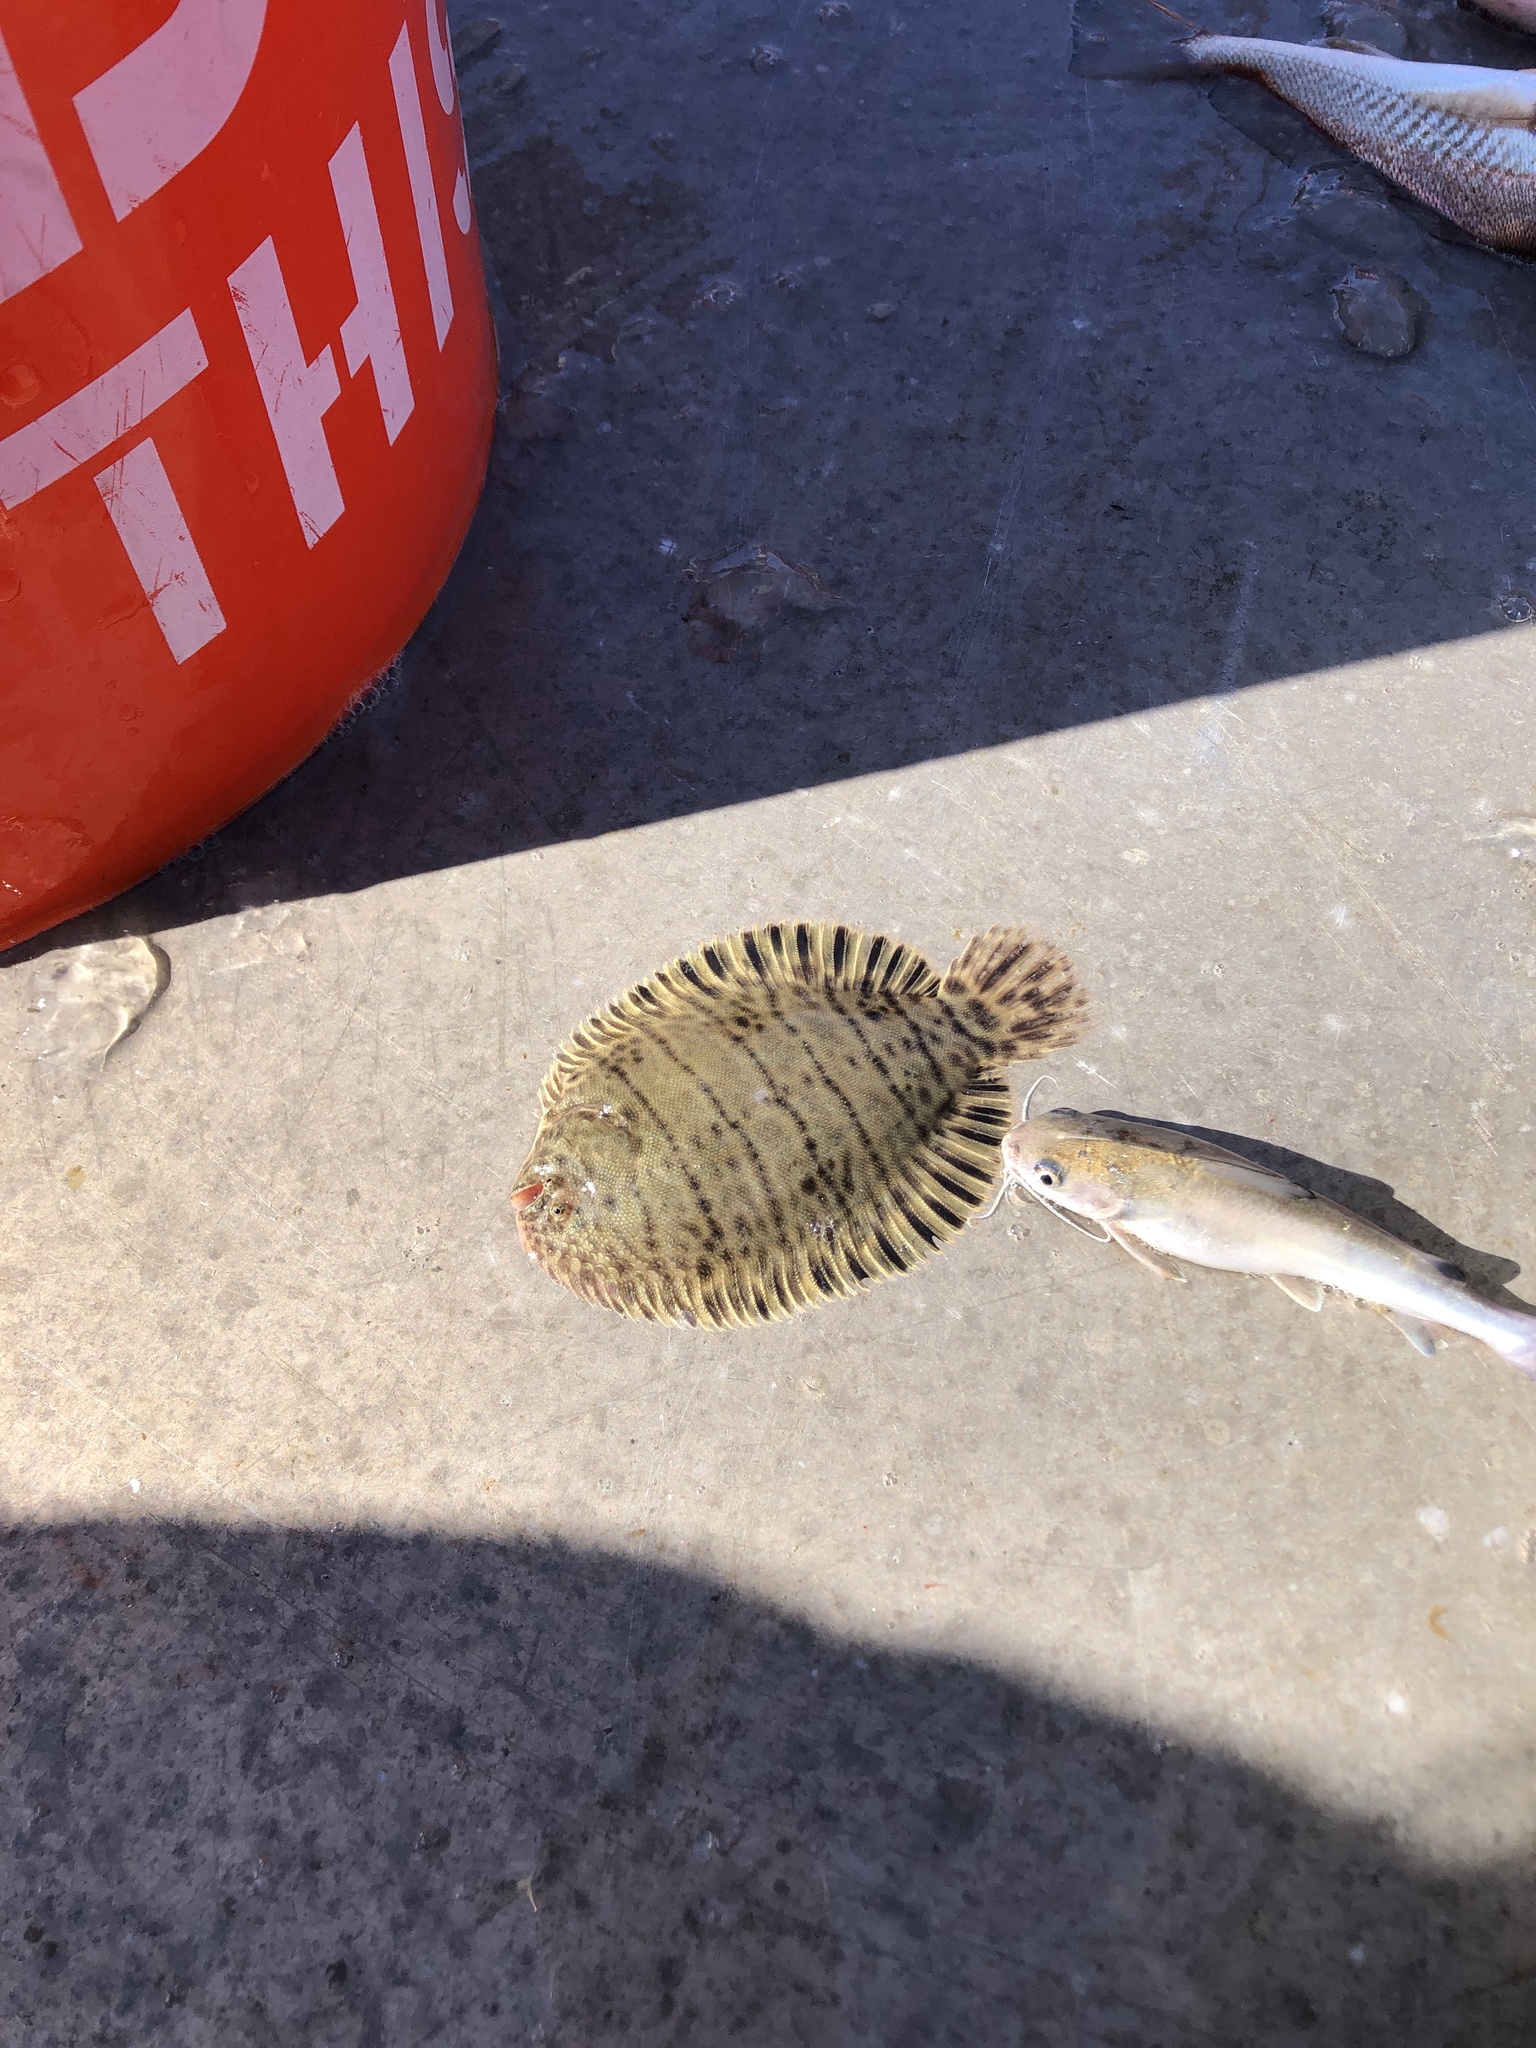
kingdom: Animalia
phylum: Chordata
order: Pleuronectiformes
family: Achiridae
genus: Trinectes
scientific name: Trinectes maculatus
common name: Hogchoker
